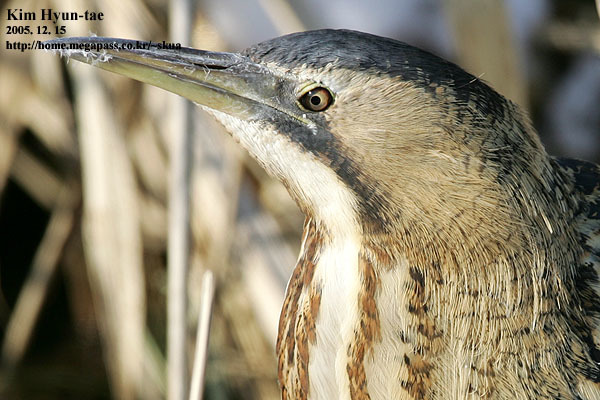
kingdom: Animalia
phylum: Chordata
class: Aves
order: Pelecaniformes
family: Ardeidae
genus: Botaurus
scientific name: Botaurus stellaris
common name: Eurasian bittern
